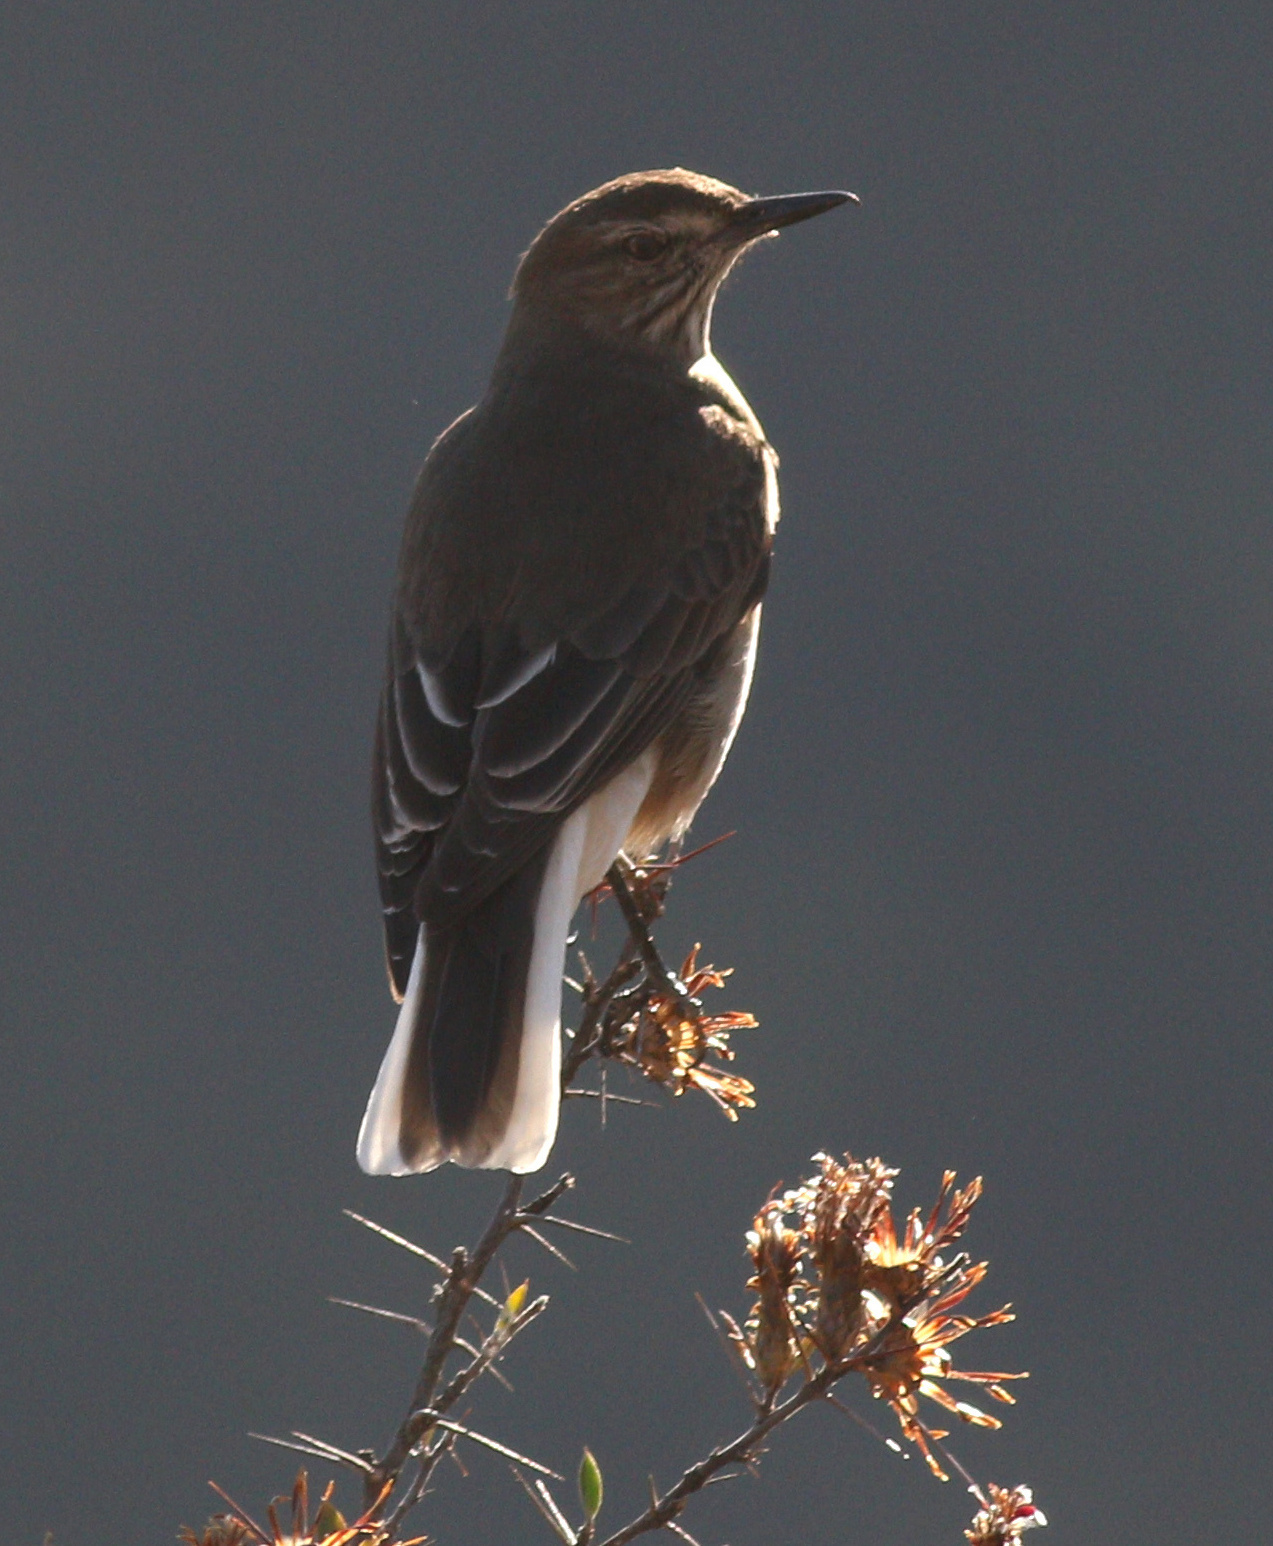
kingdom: Animalia
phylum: Chordata
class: Aves
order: Passeriformes
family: Tyrannidae
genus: Agriornis
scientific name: Agriornis montanus
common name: Black-billed shrike-tyrant
